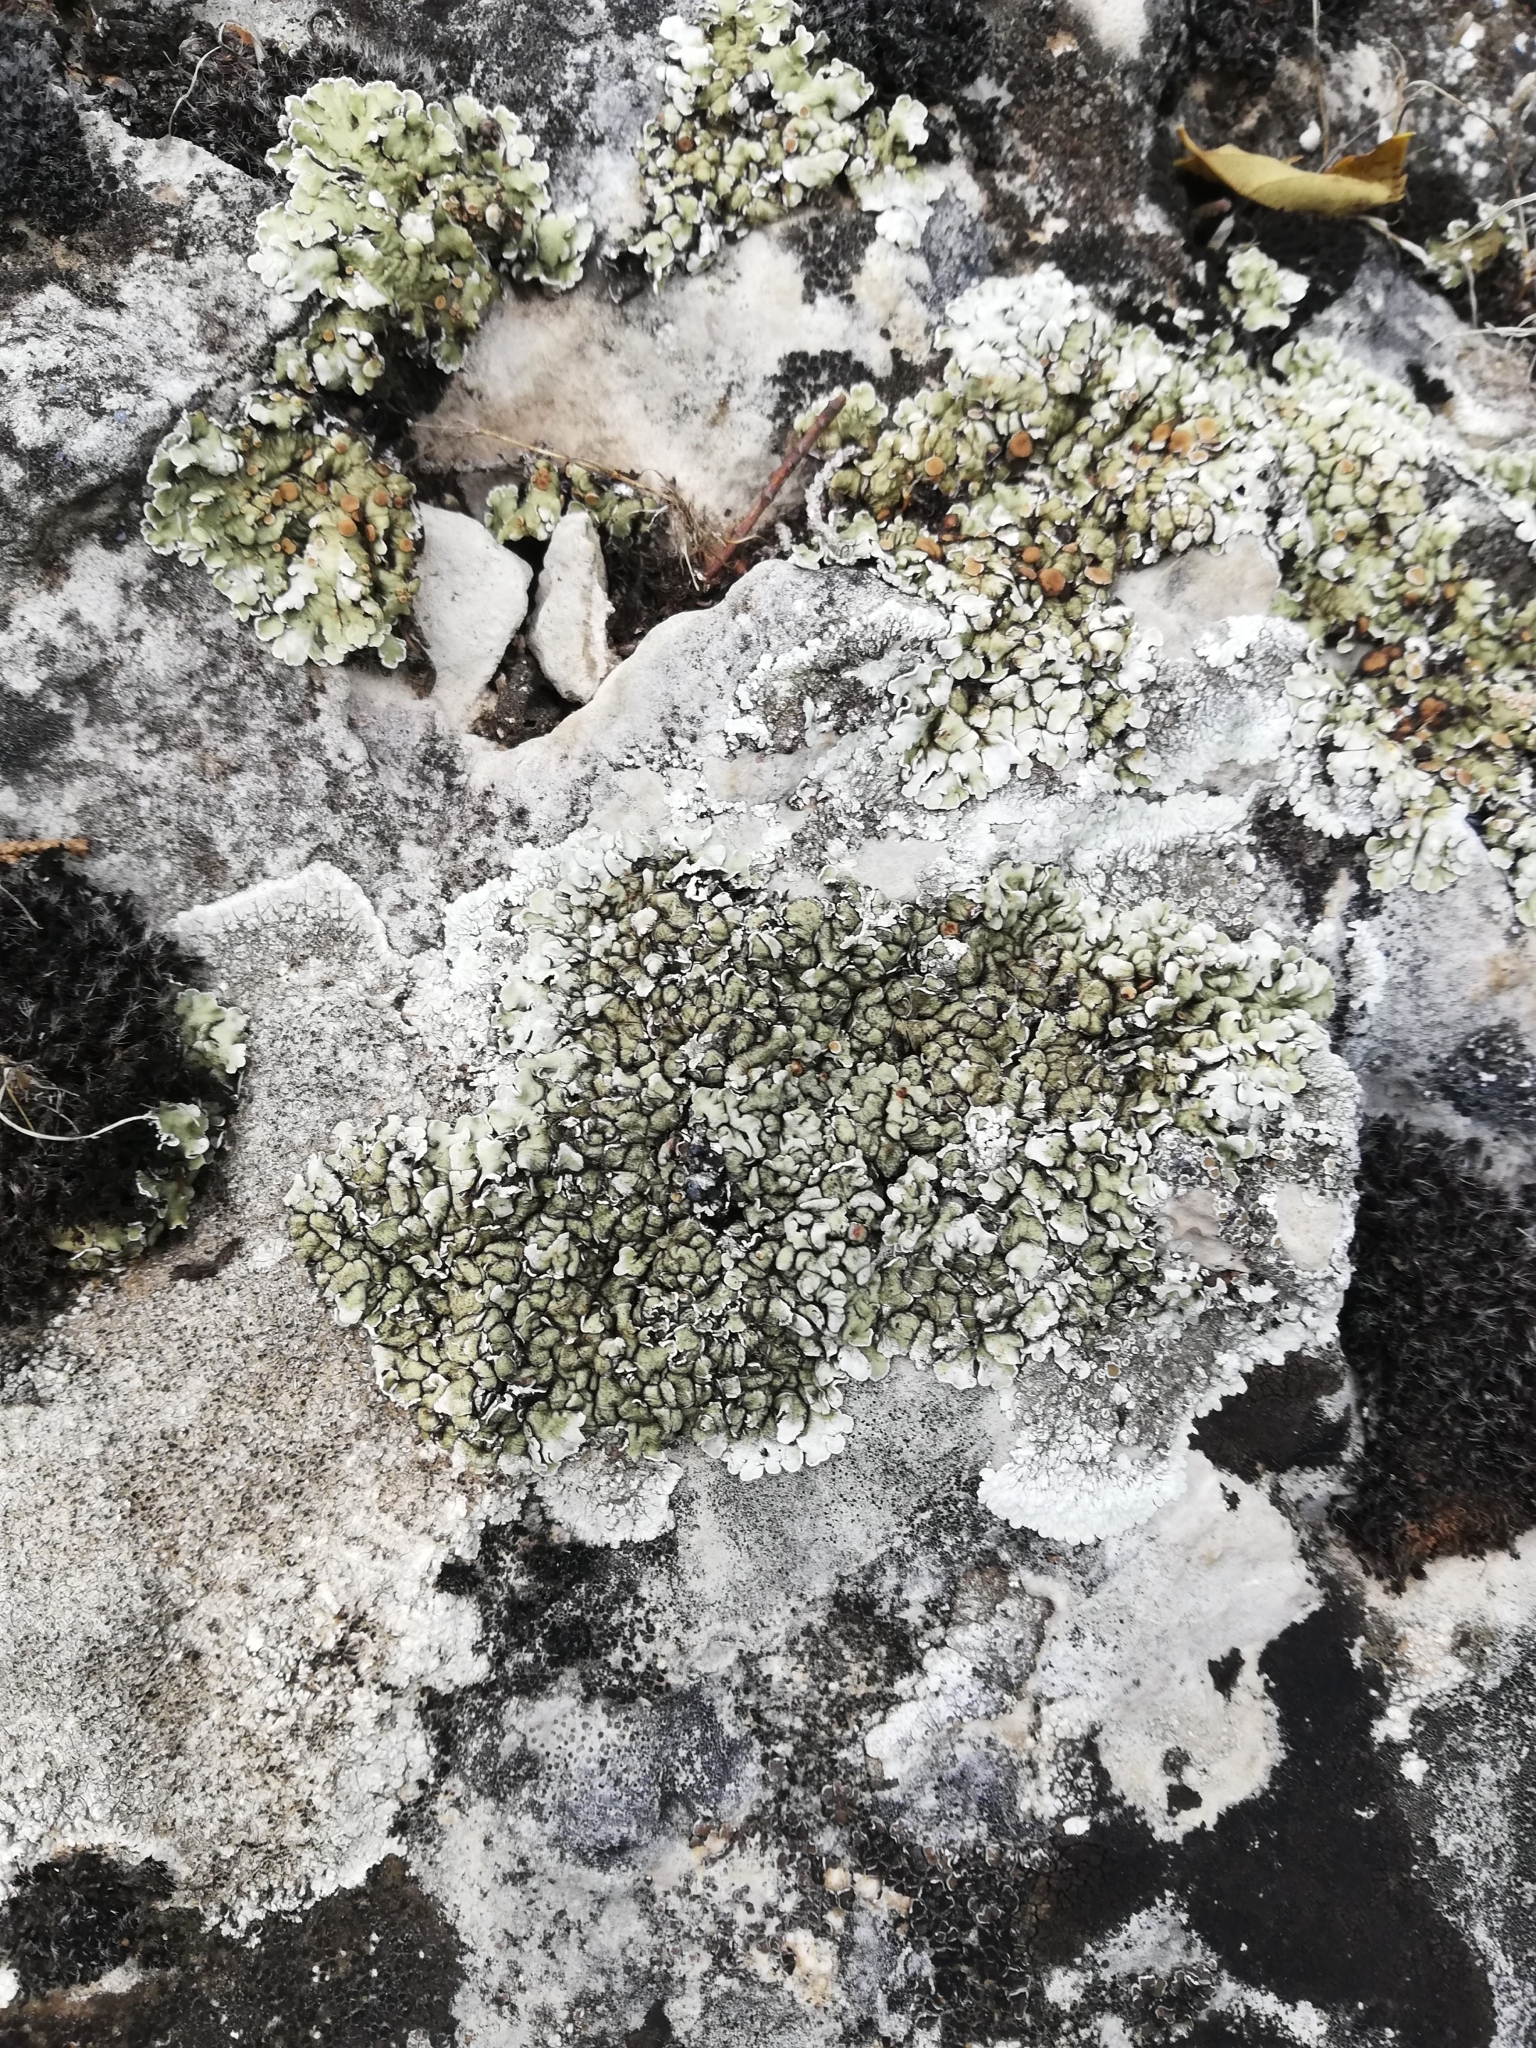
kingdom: Fungi
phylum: Ascomycota
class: Lecanoromycetes
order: Lecanorales
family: Stereocaulaceae
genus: Squamarina
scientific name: Squamarina cartilaginea
